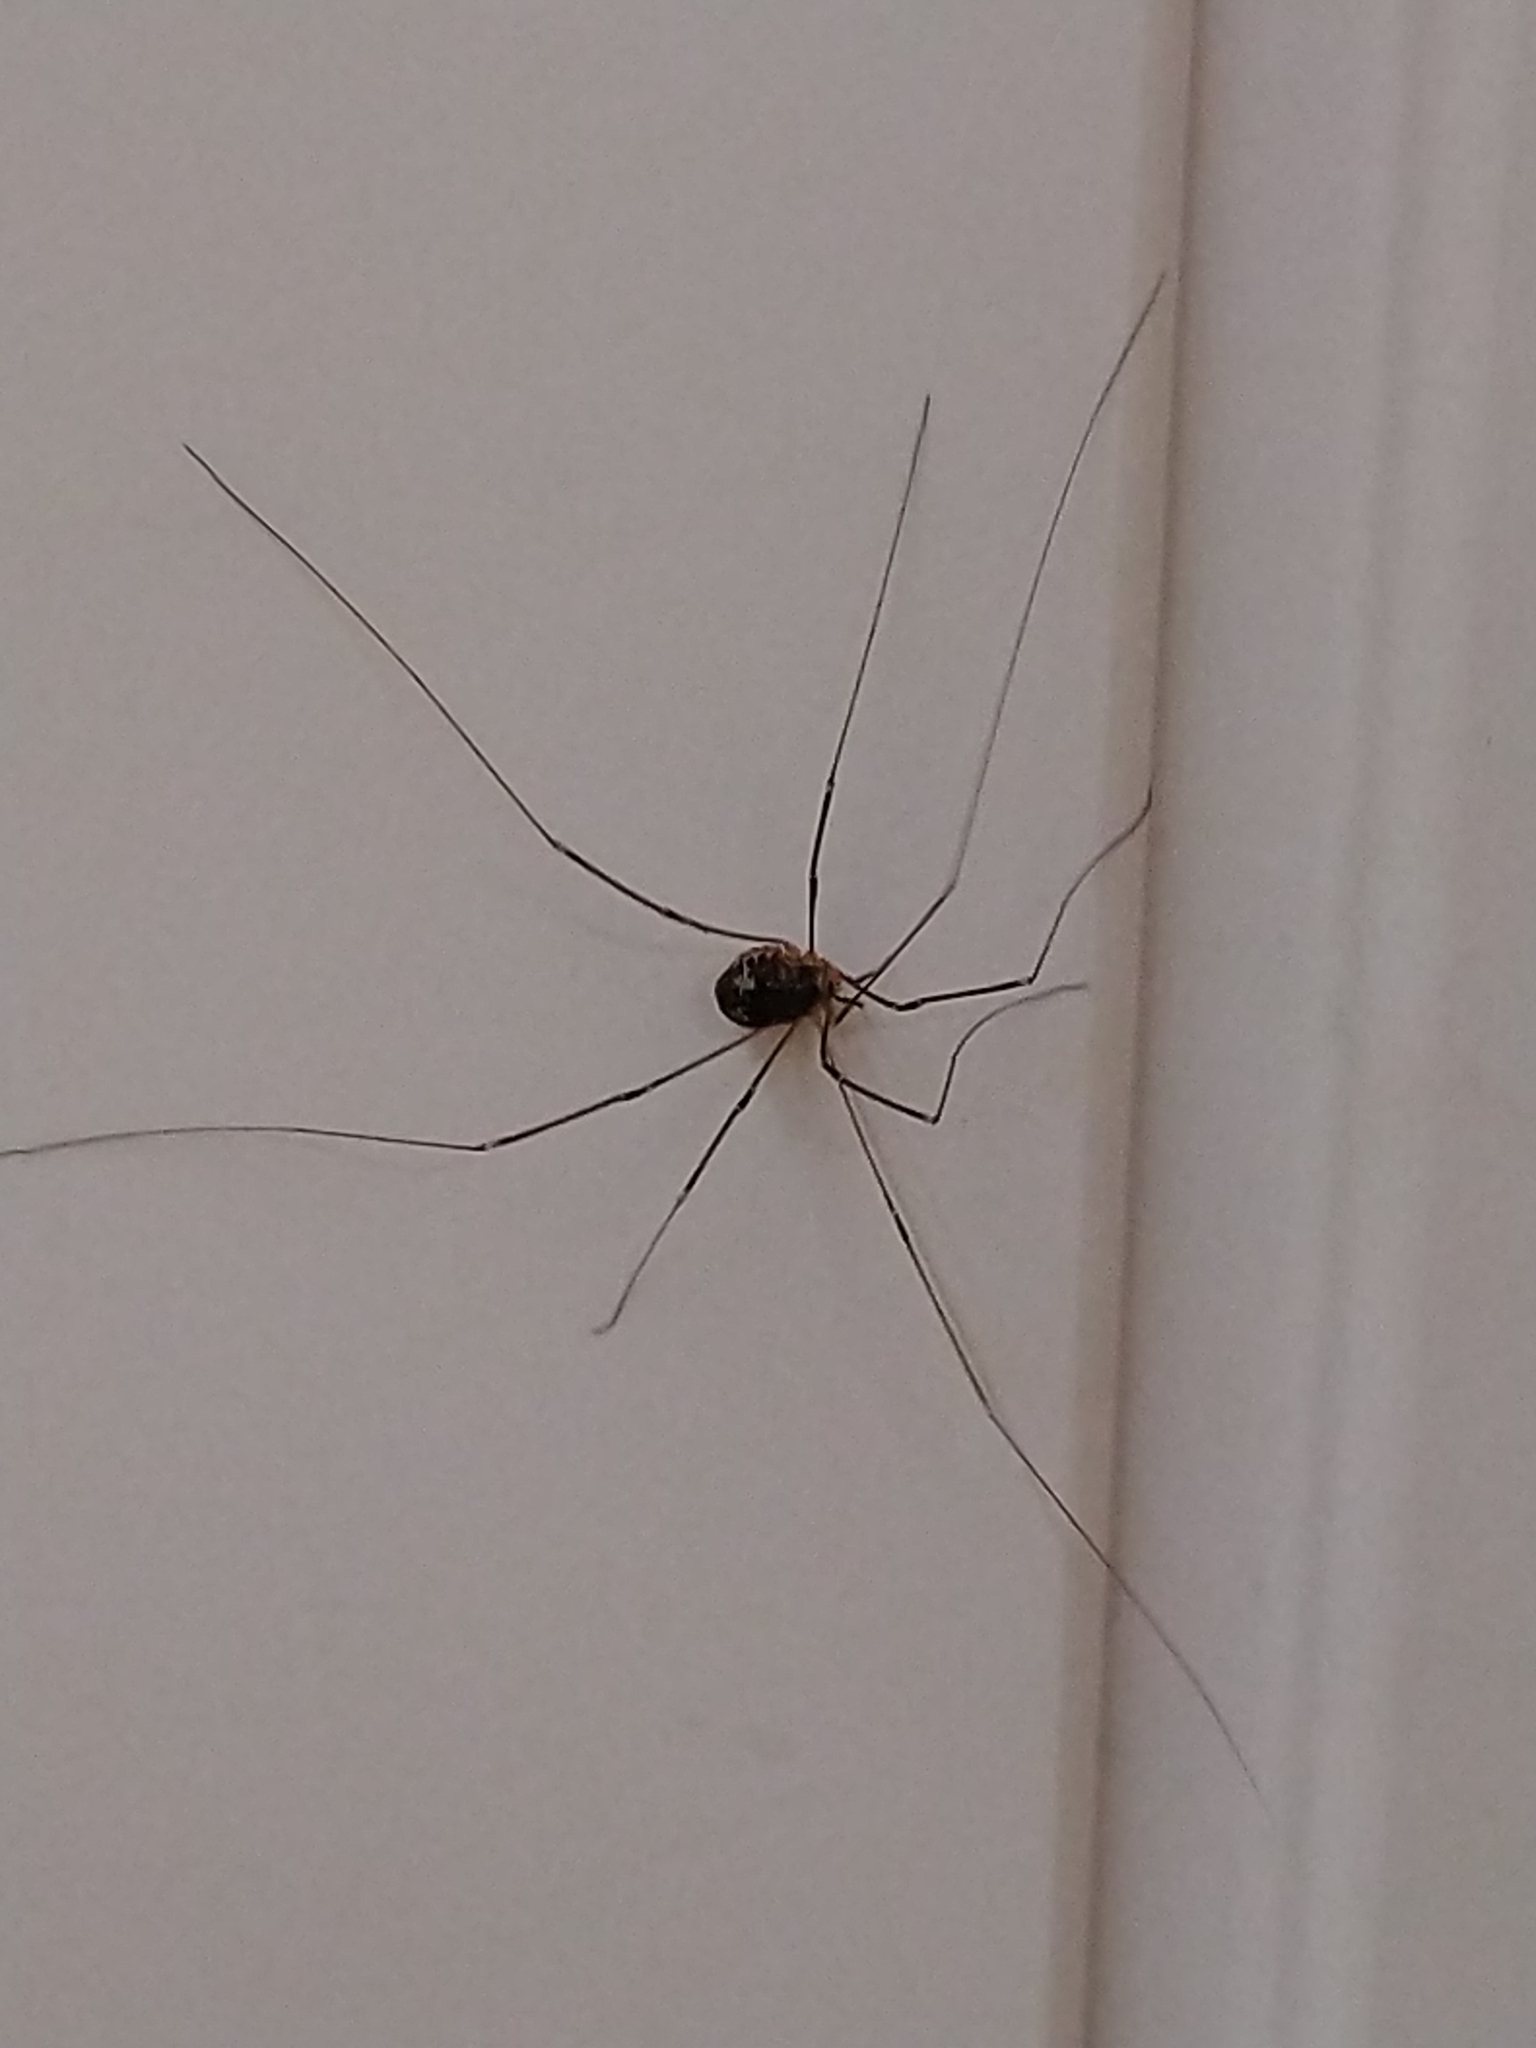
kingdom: Animalia
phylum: Arthropoda
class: Arachnida
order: Opiliones
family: Sclerosomatidae
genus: Leiobunum
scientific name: Leiobunum gracile
